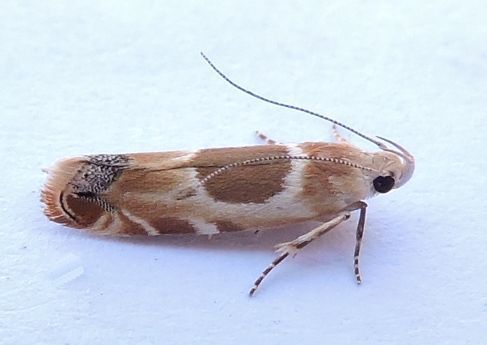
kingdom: Animalia
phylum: Arthropoda
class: Insecta
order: Lepidoptera
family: Gelechiidae
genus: Battaristis
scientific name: Battaristis cyclella
